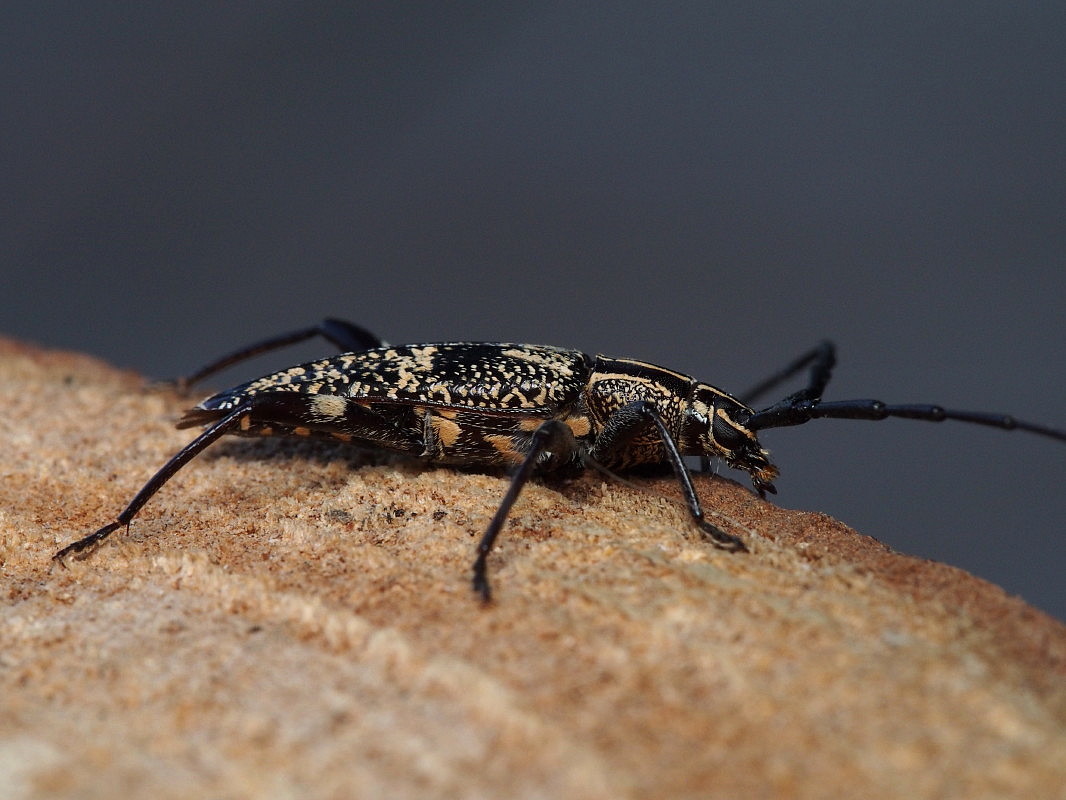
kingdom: Animalia
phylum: Arthropoda
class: Insecta
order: Coleoptera
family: Cerambycidae
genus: Coptomma
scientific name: Coptomma variegatum
